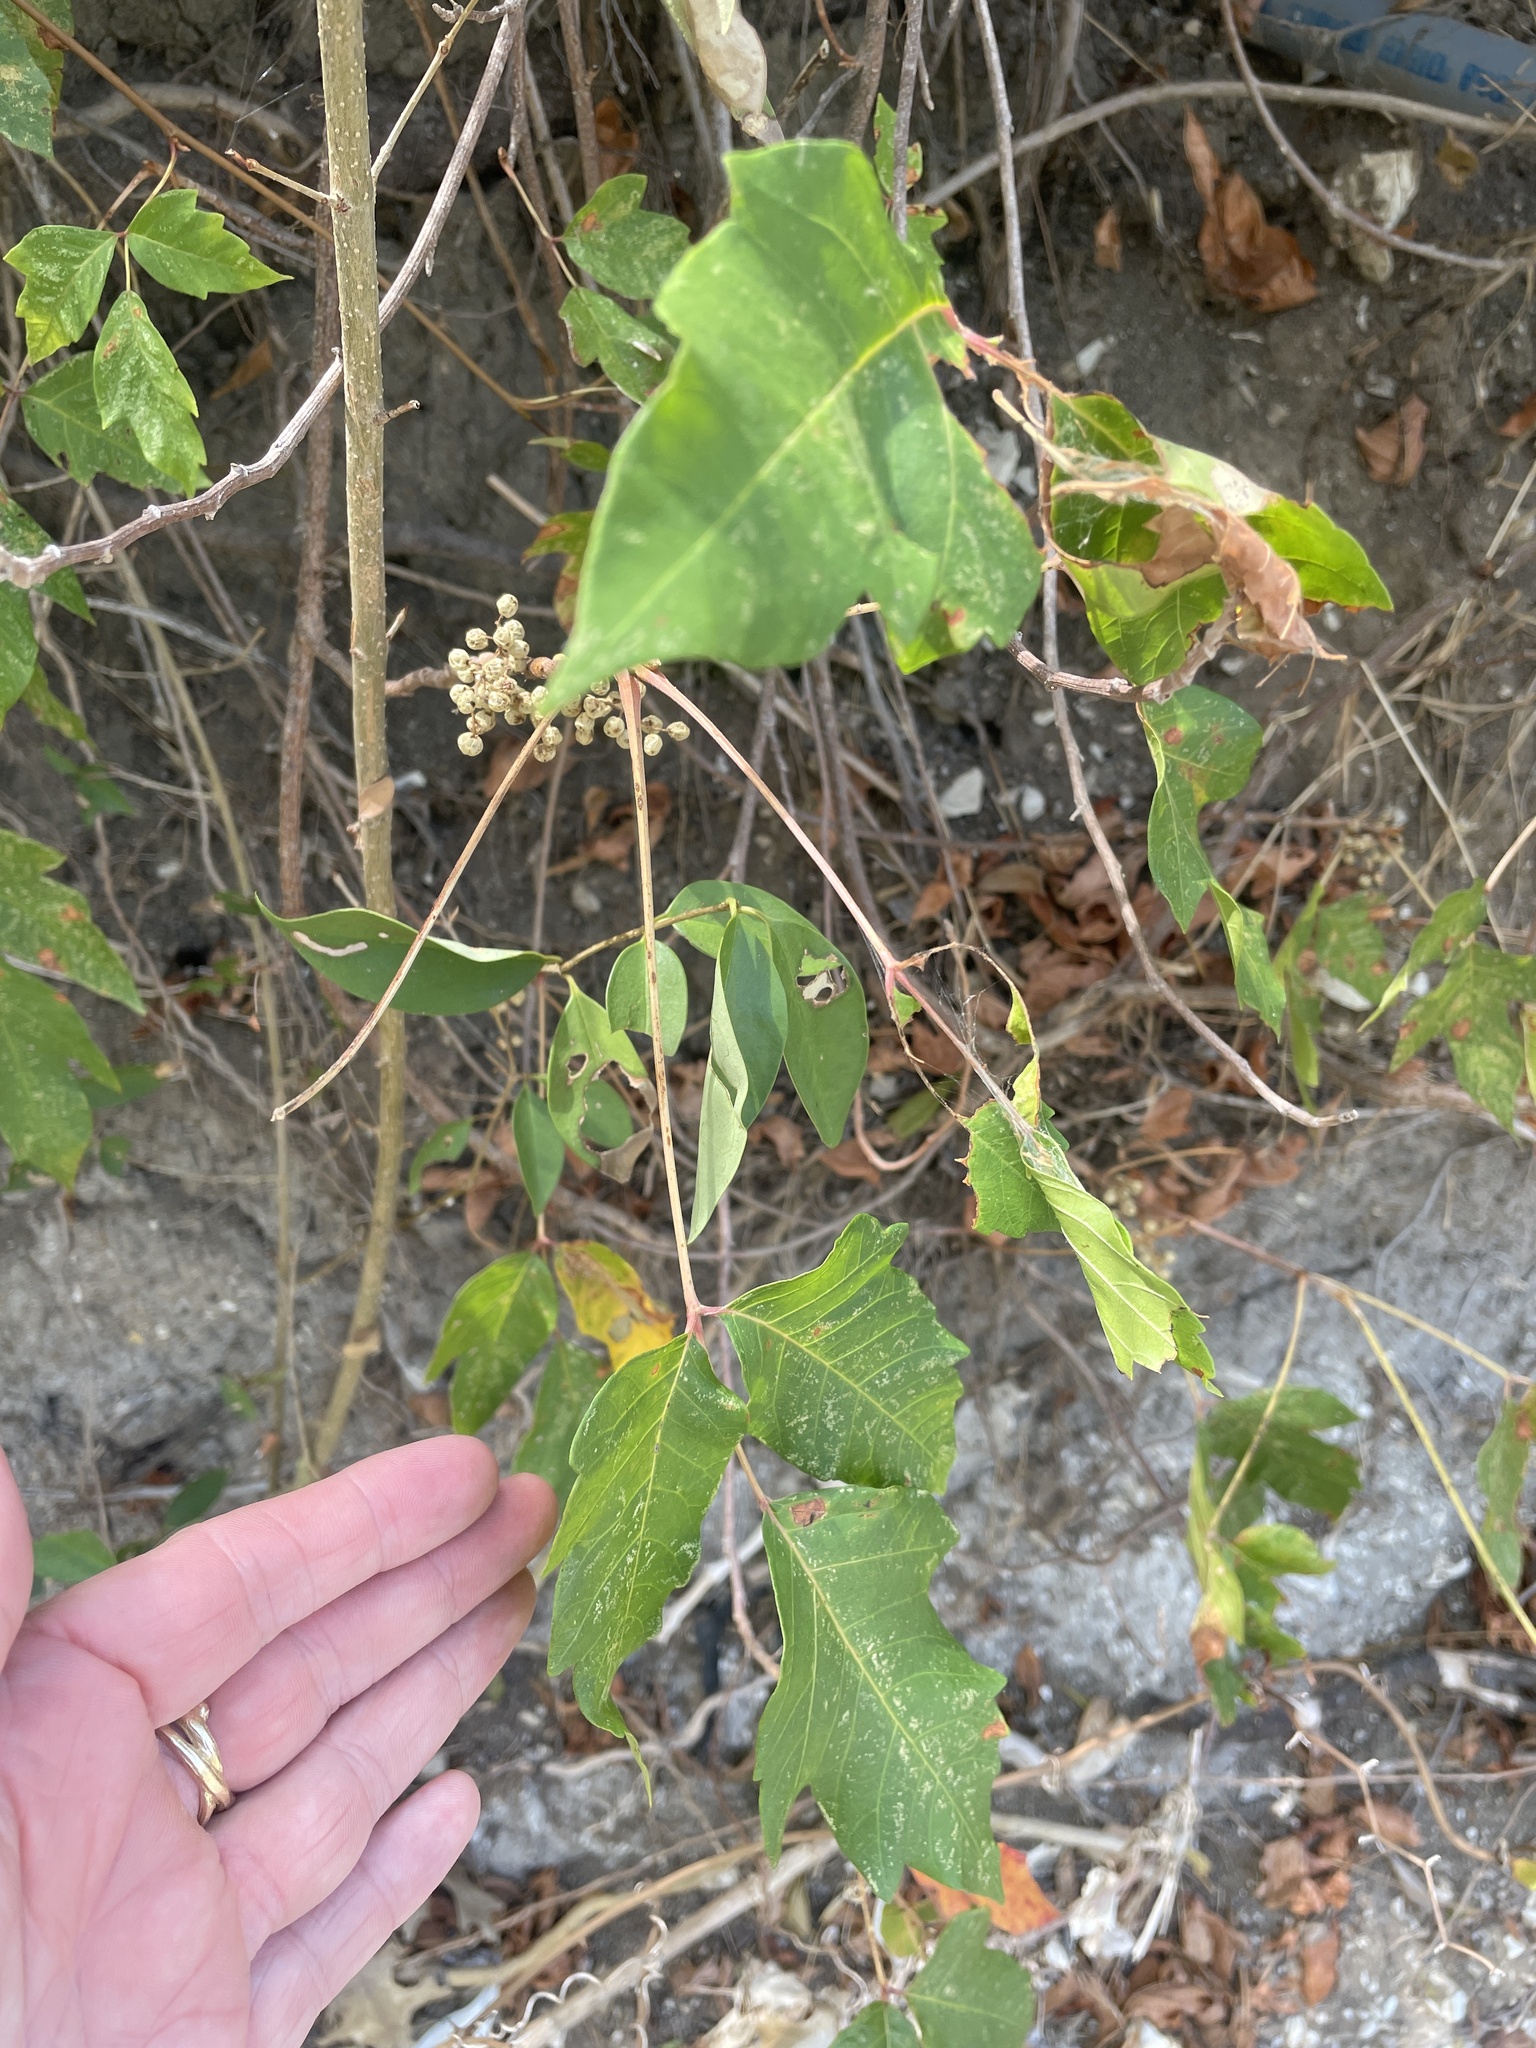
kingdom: Plantae
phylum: Tracheophyta
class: Magnoliopsida
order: Sapindales
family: Anacardiaceae
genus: Toxicodendron
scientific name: Toxicodendron radicans
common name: Poison ivy
